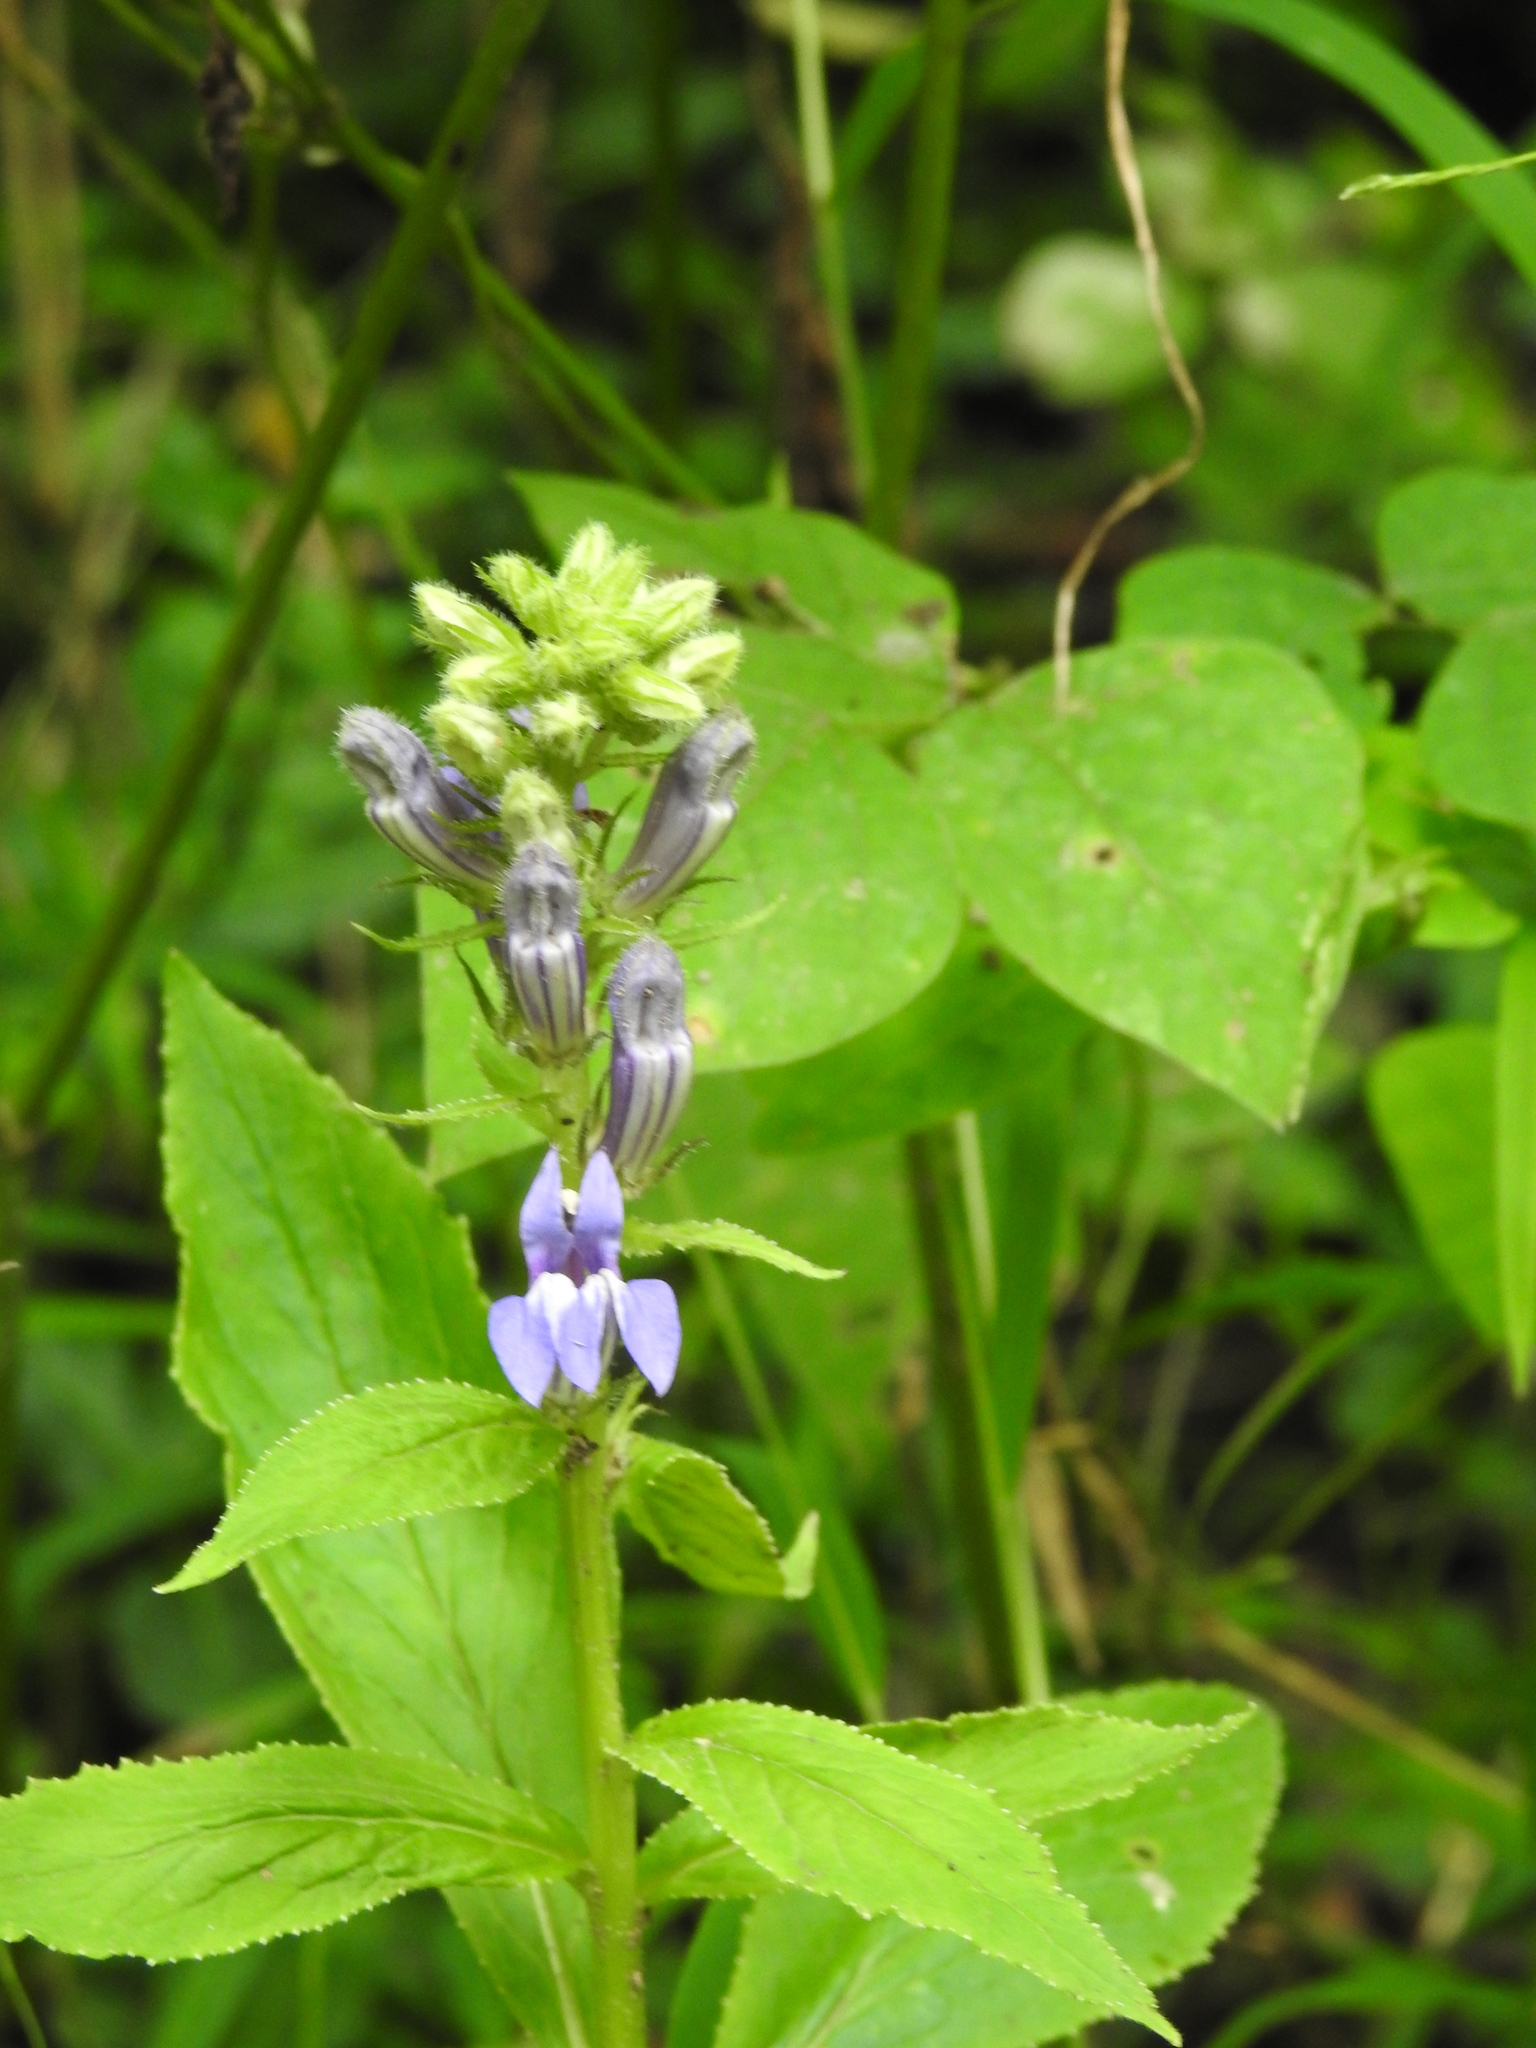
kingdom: Plantae
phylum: Tracheophyta
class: Magnoliopsida
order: Asterales
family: Campanulaceae
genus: Lobelia
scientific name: Lobelia siphilitica
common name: Great lobelia
